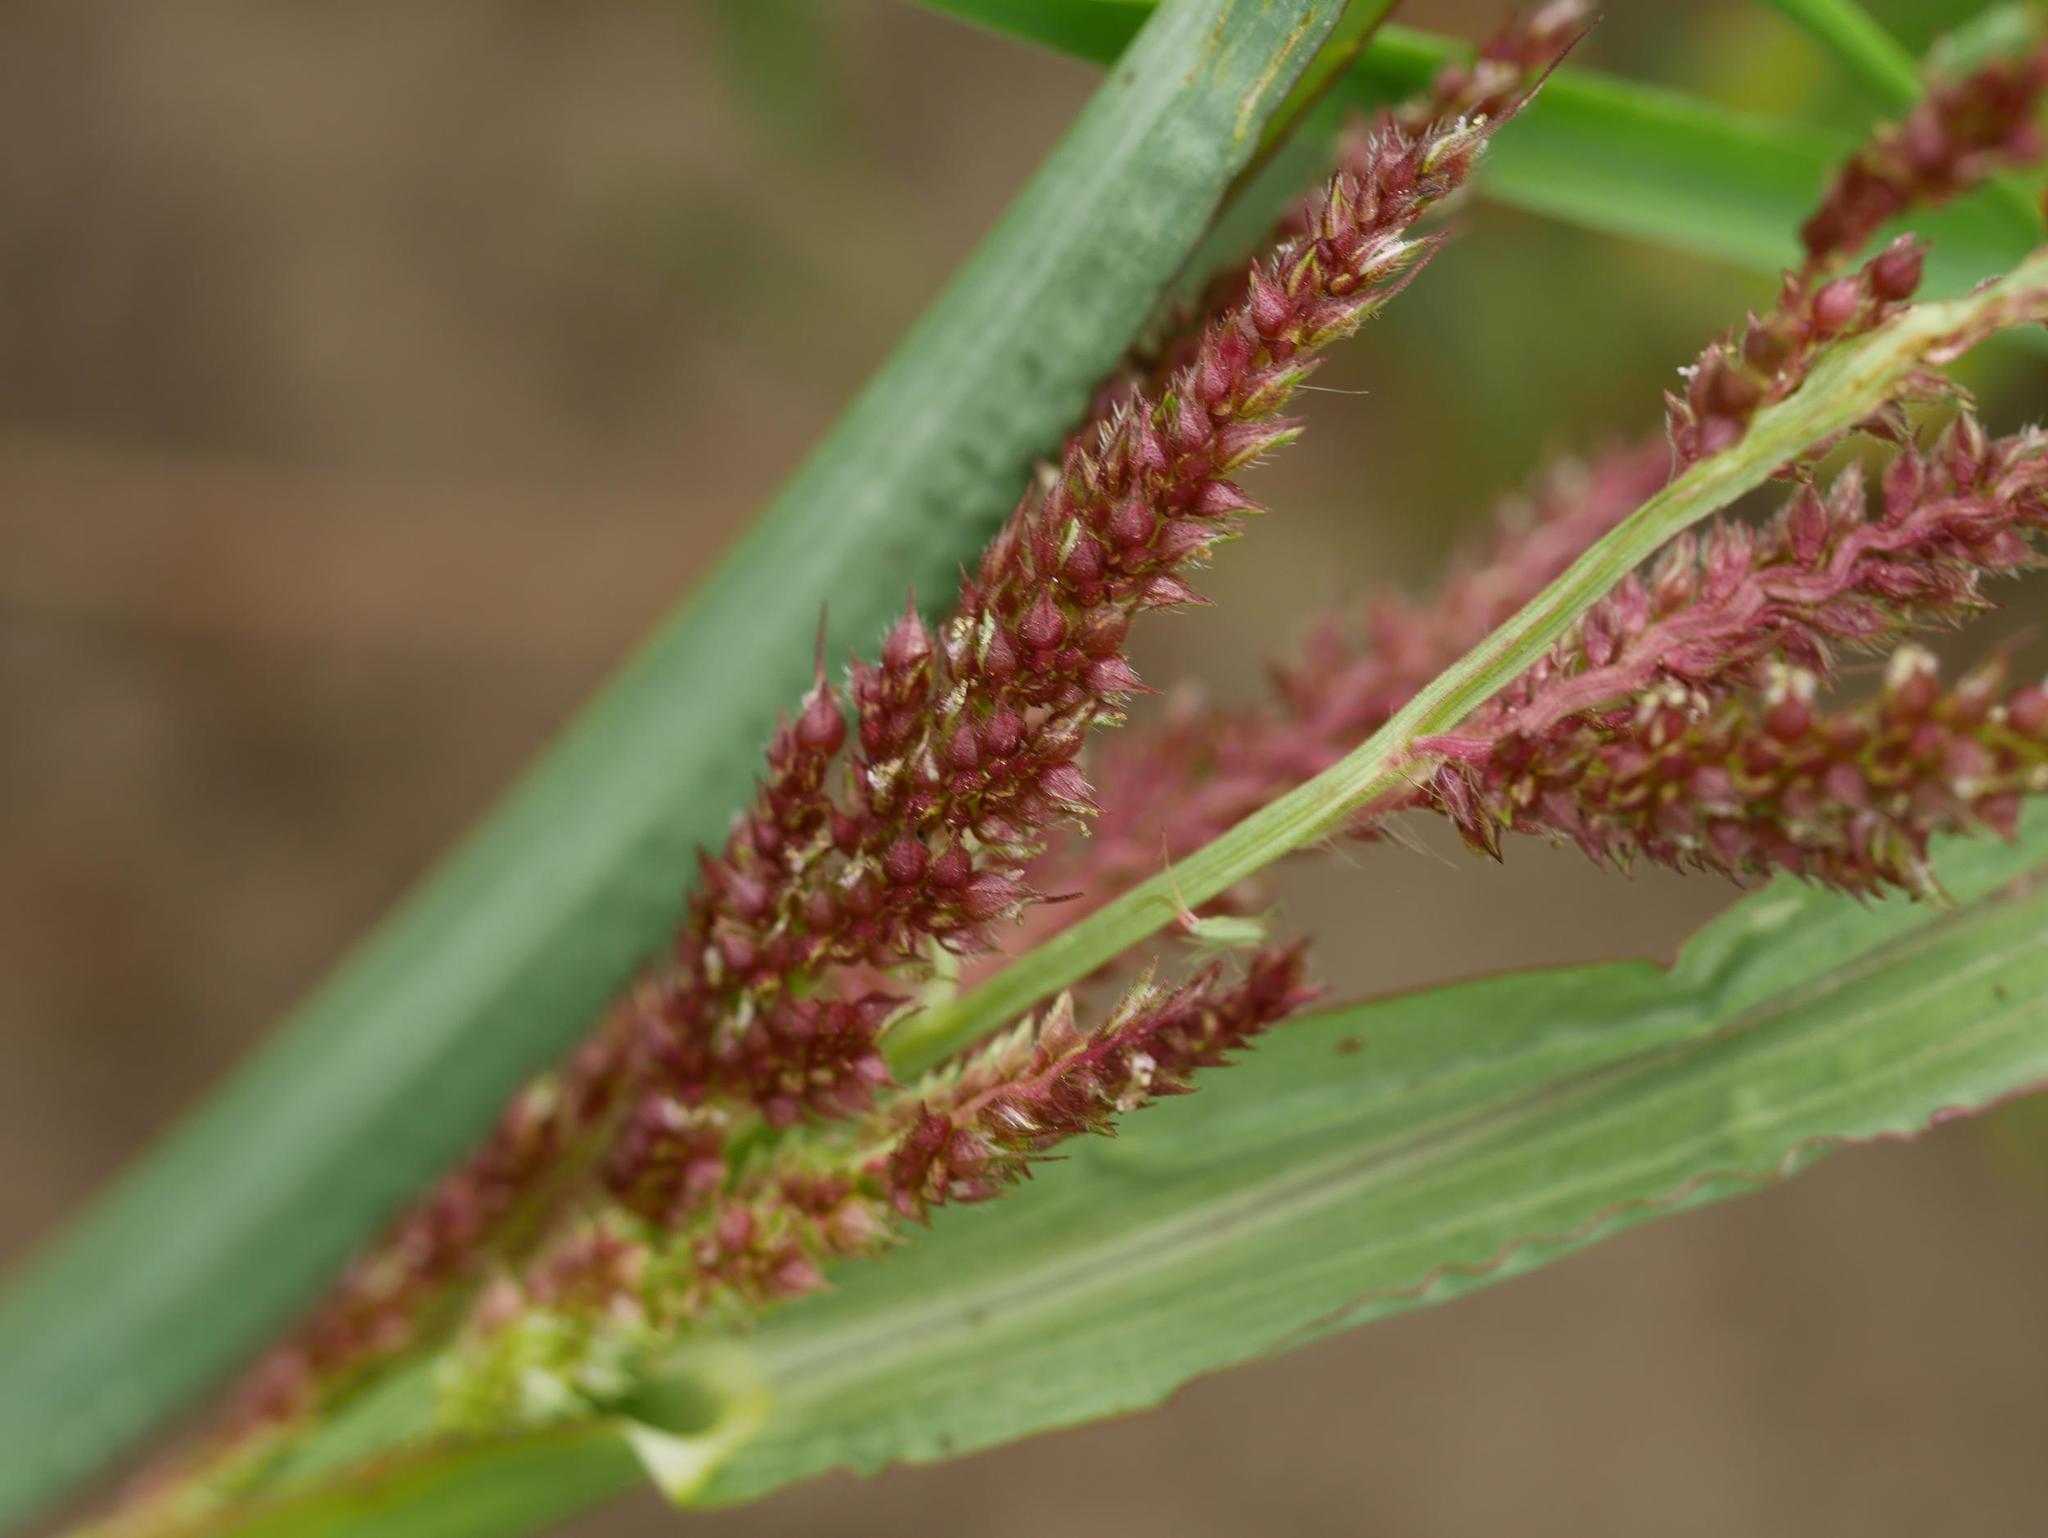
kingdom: Plantae
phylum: Tracheophyta
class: Liliopsida
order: Poales
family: Poaceae
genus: Echinochloa
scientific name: Echinochloa crus-galli
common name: Cockspur
